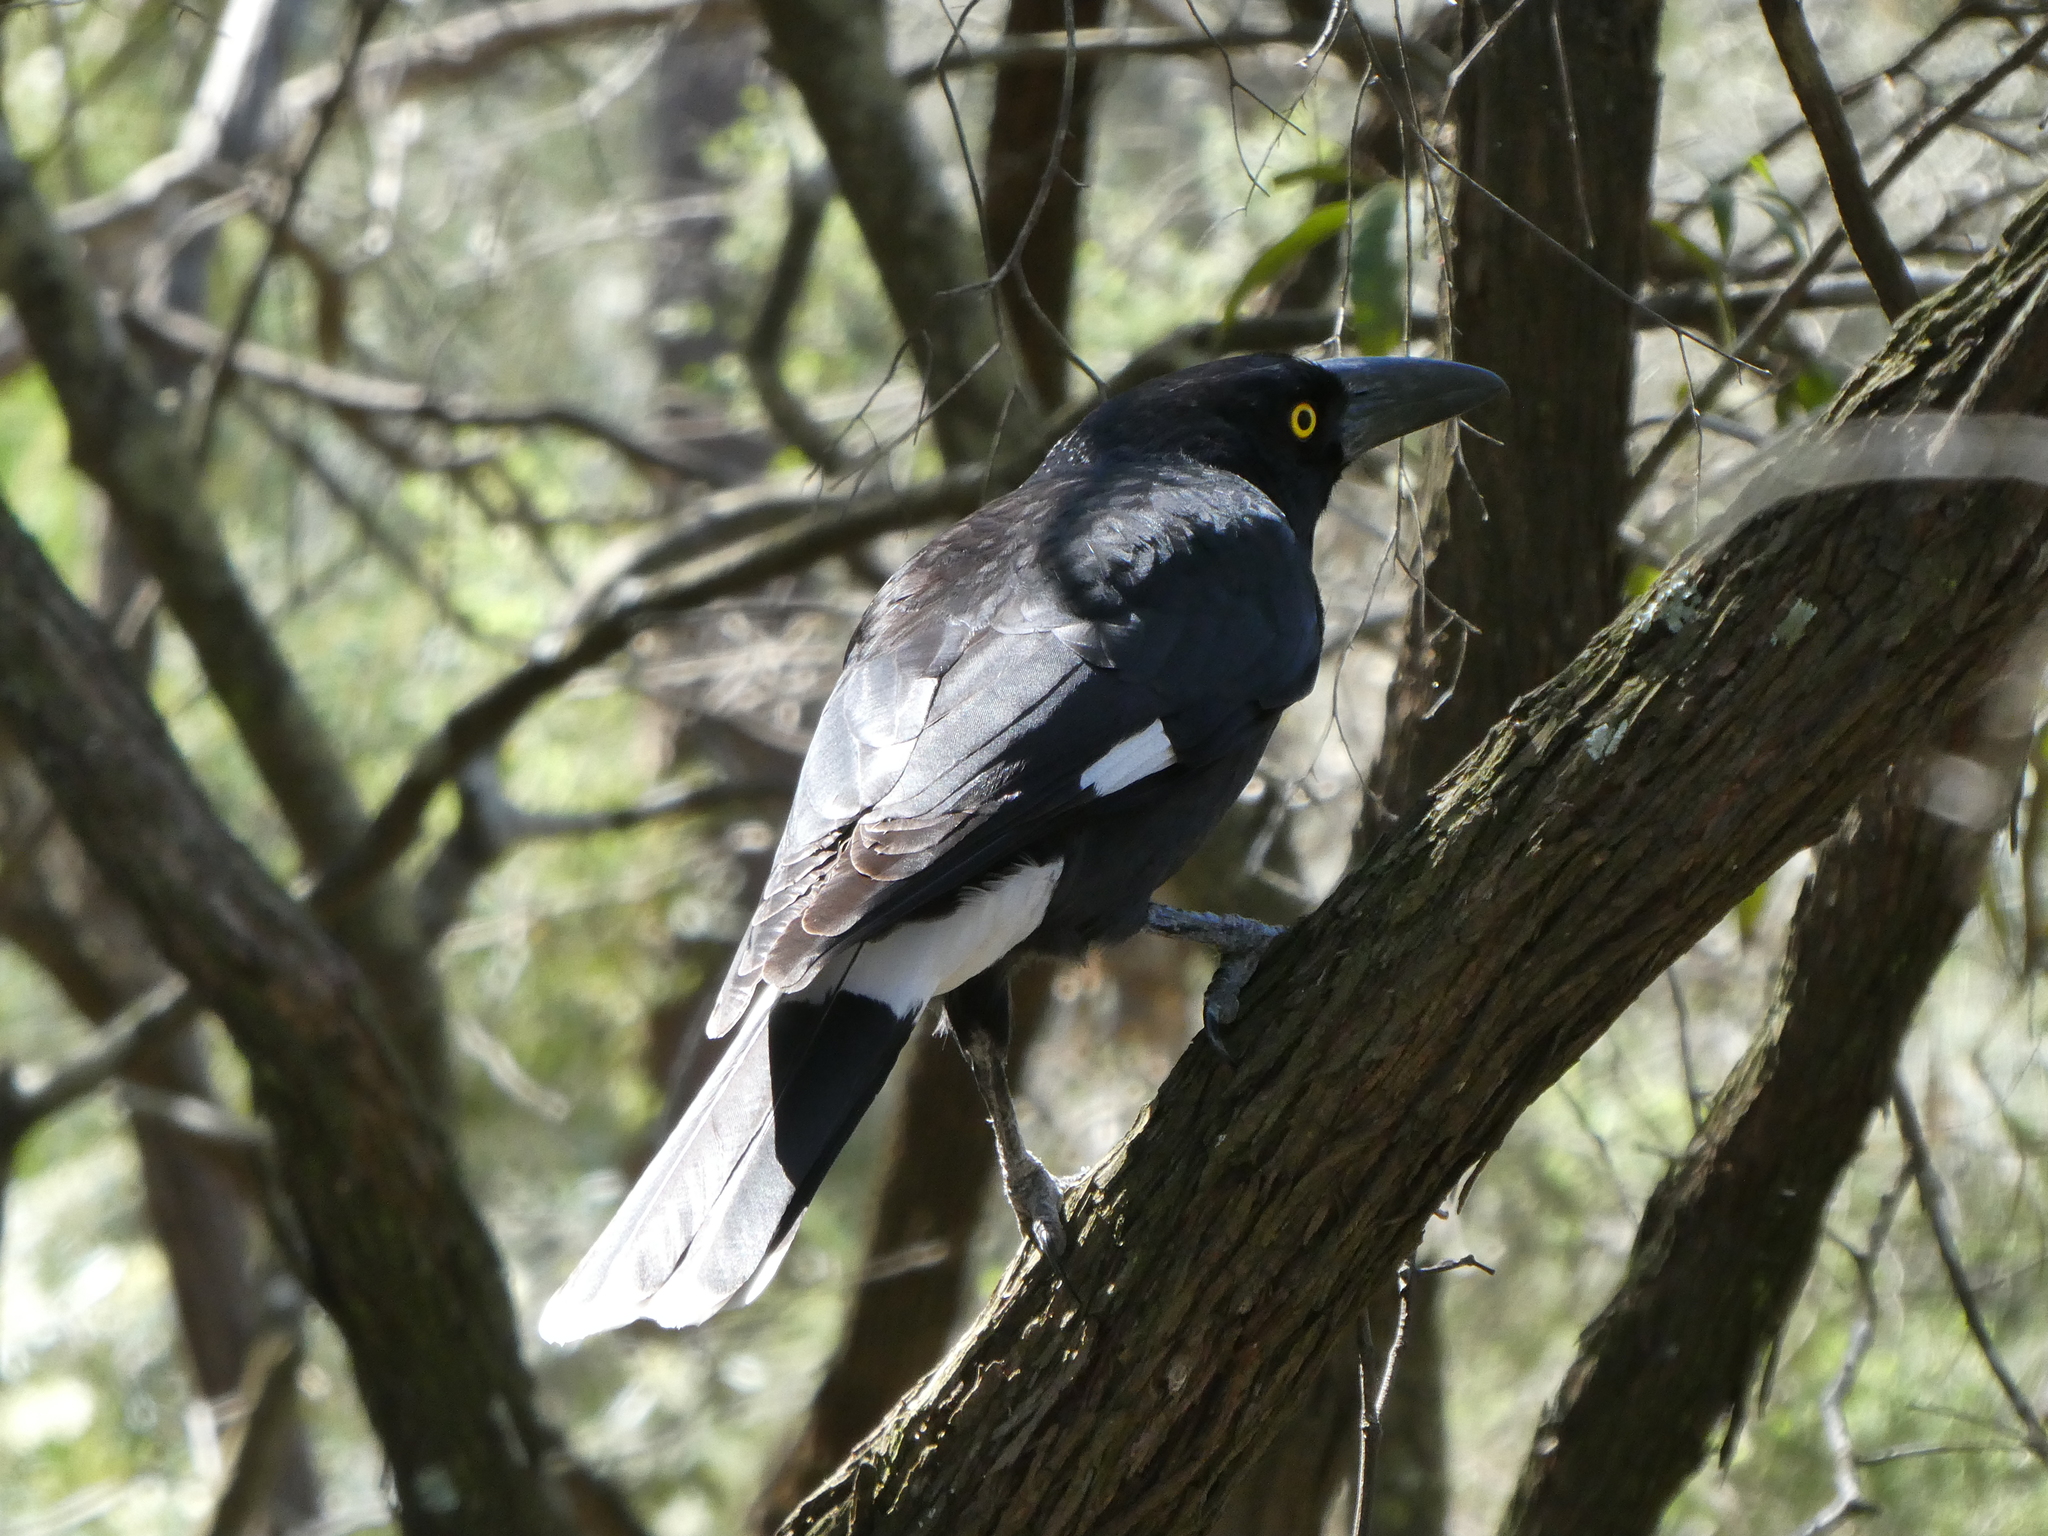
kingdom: Animalia
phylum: Chordata
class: Aves
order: Passeriformes
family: Cracticidae
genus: Strepera
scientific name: Strepera graculina
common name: Pied currawong
